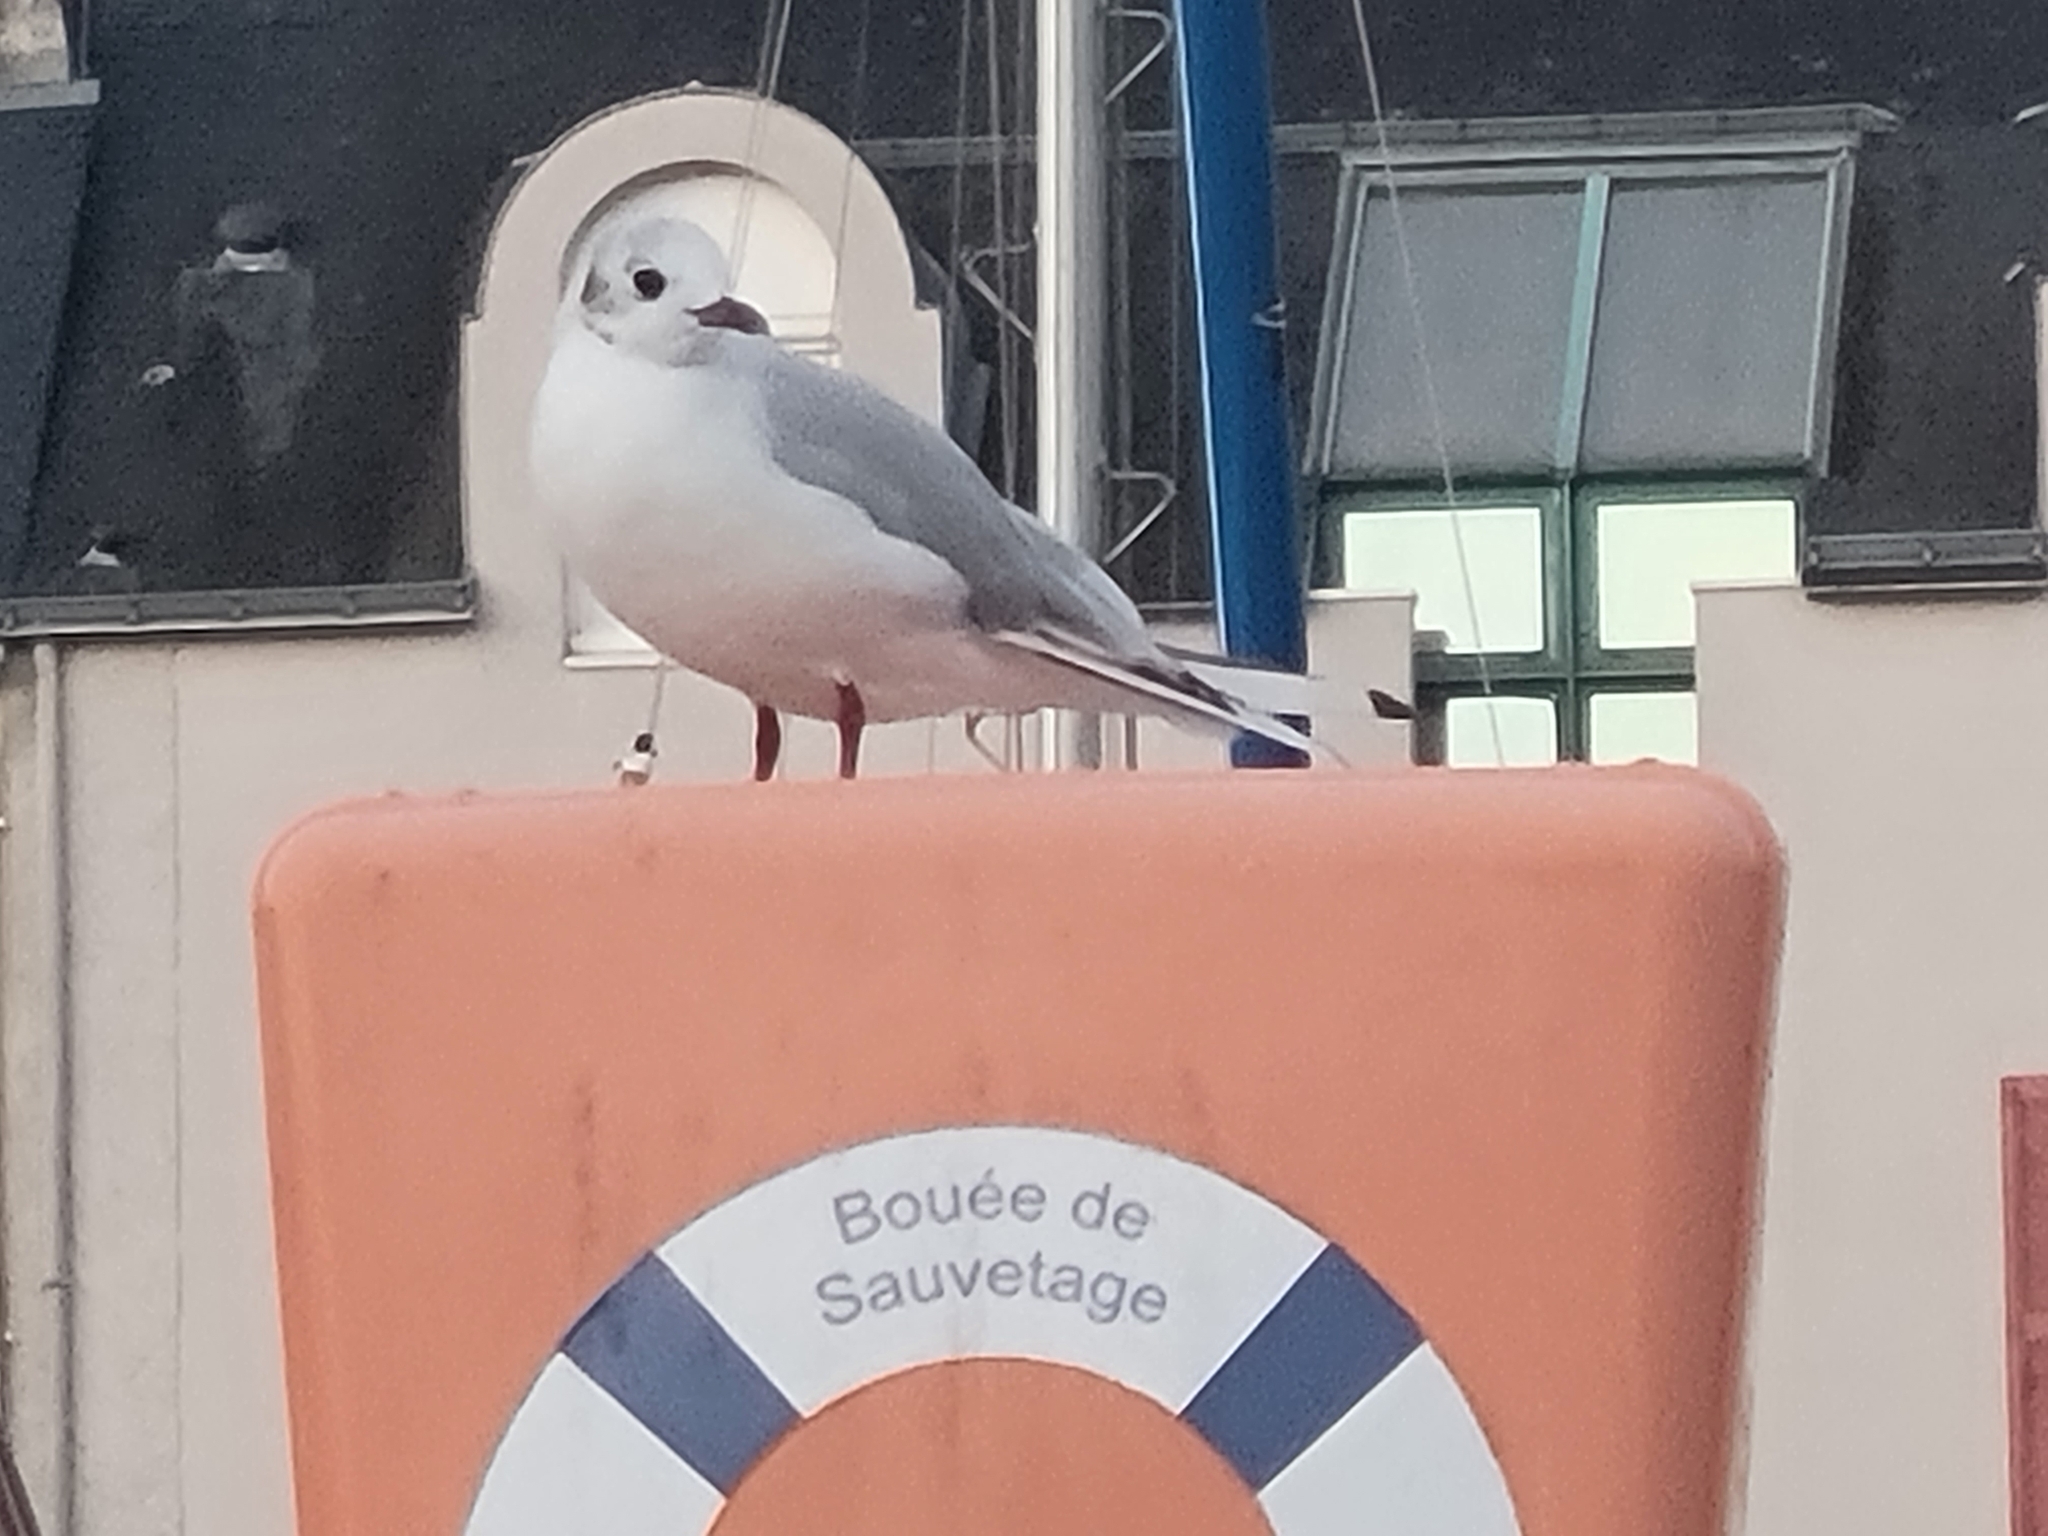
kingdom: Animalia
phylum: Chordata
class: Aves
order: Charadriiformes
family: Laridae
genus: Chroicocephalus
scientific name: Chroicocephalus ridibundus
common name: Black-headed gull
